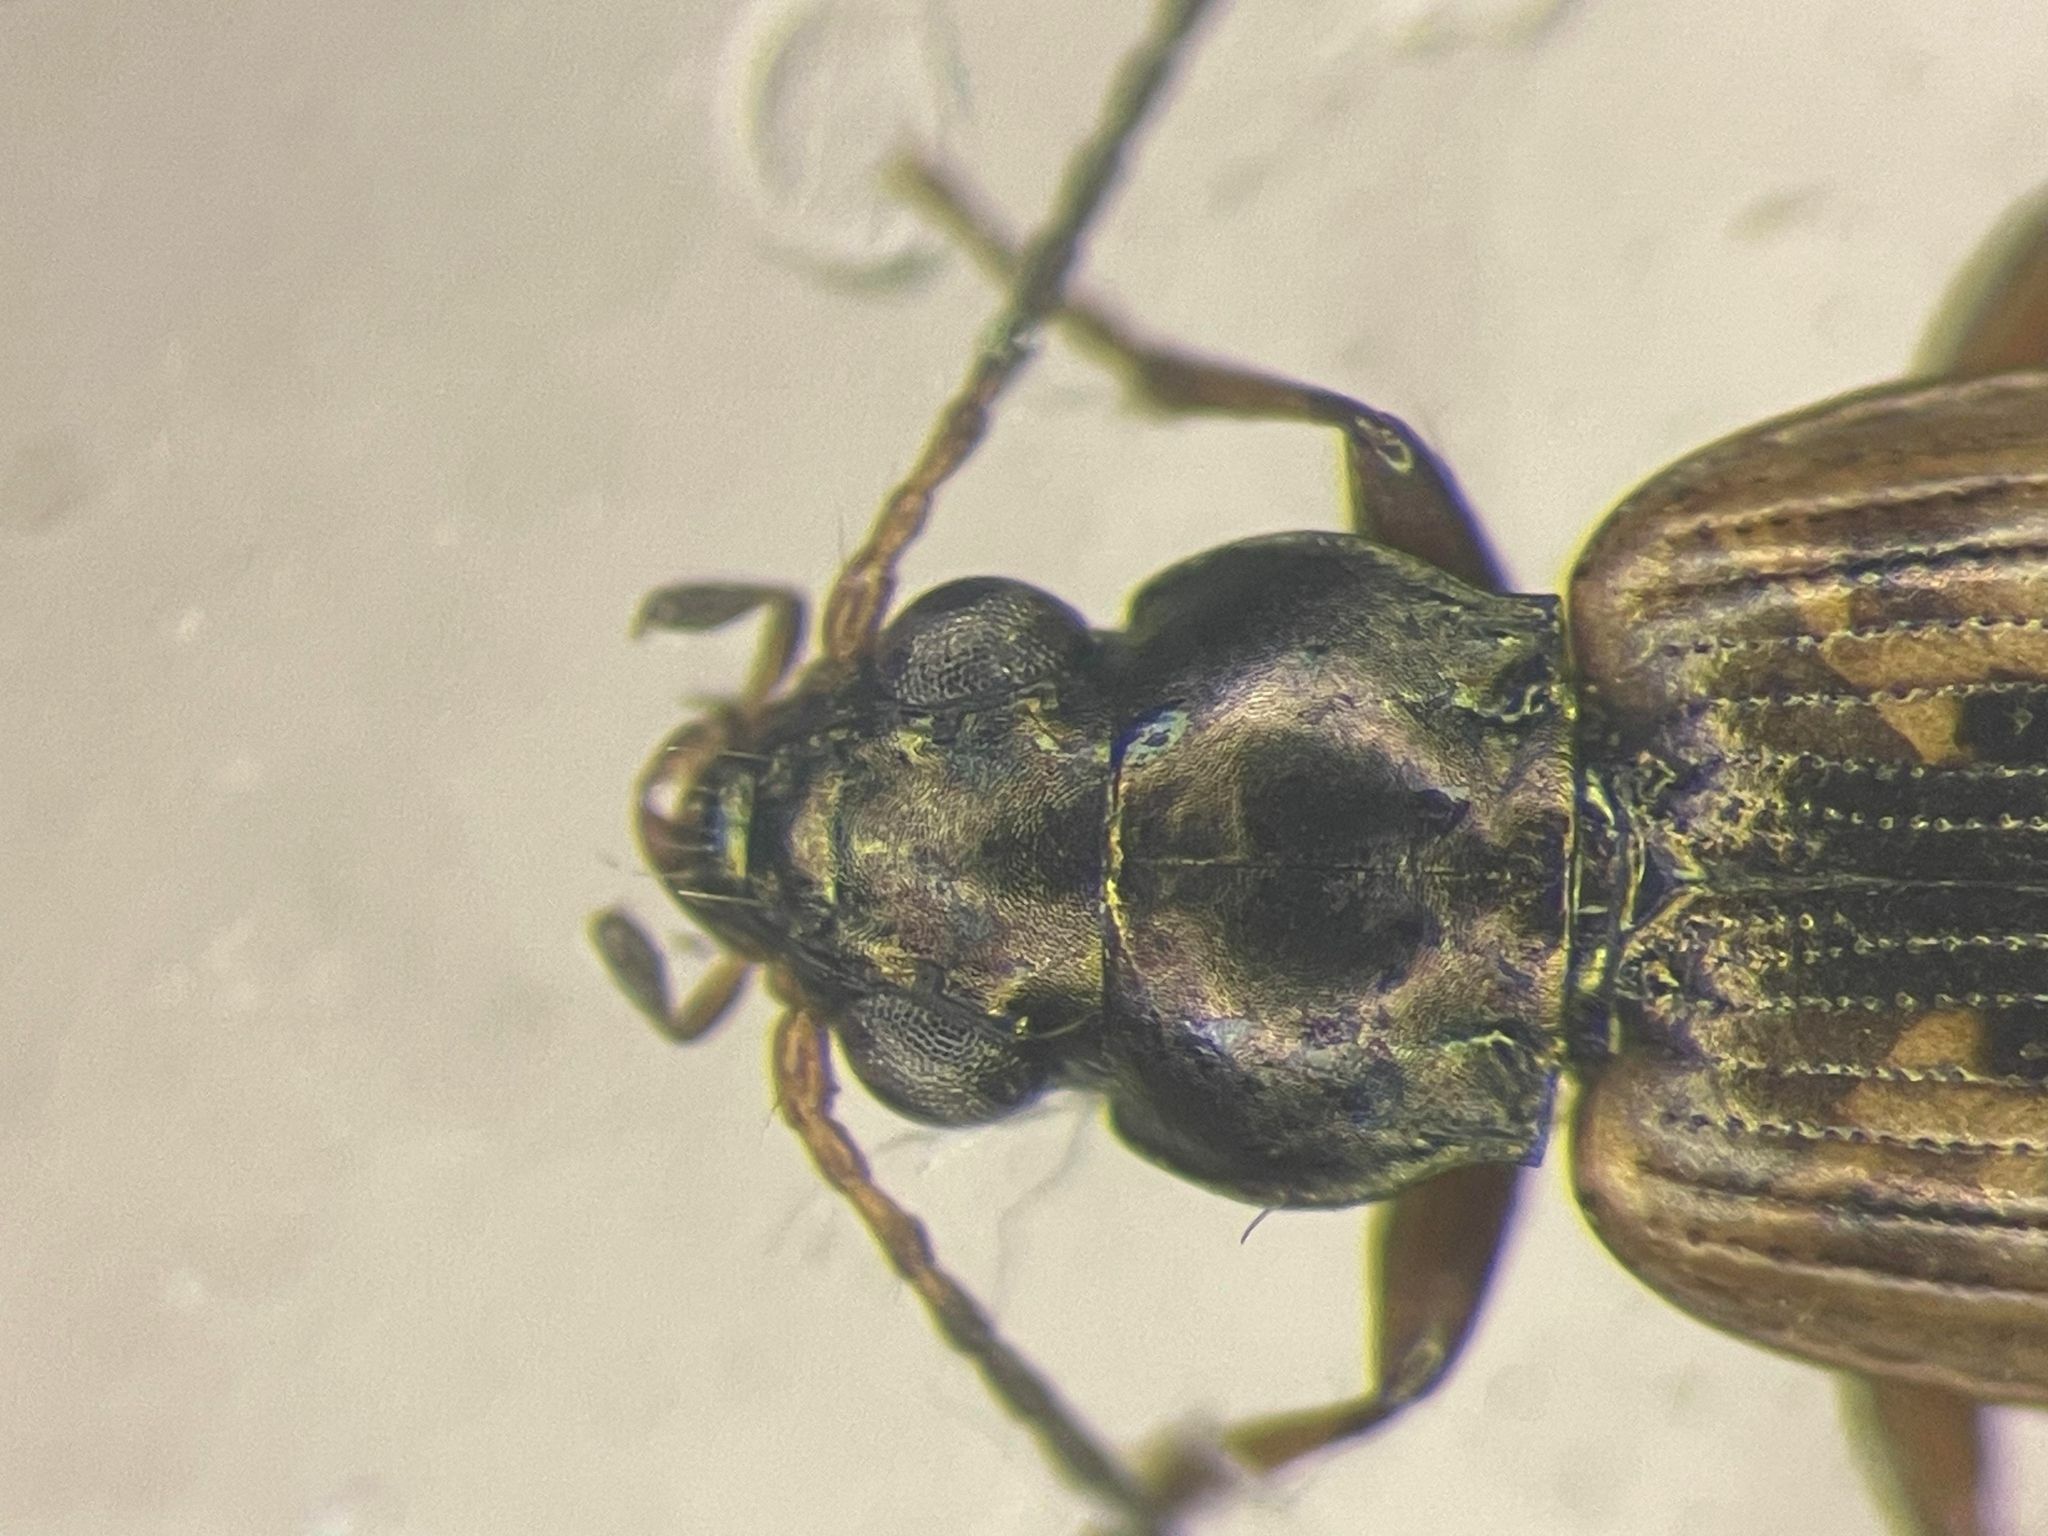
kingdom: Animalia
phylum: Arthropoda
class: Insecta
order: Coleoptera
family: Carabidae
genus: Bembidion
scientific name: Bembidion variegatum
